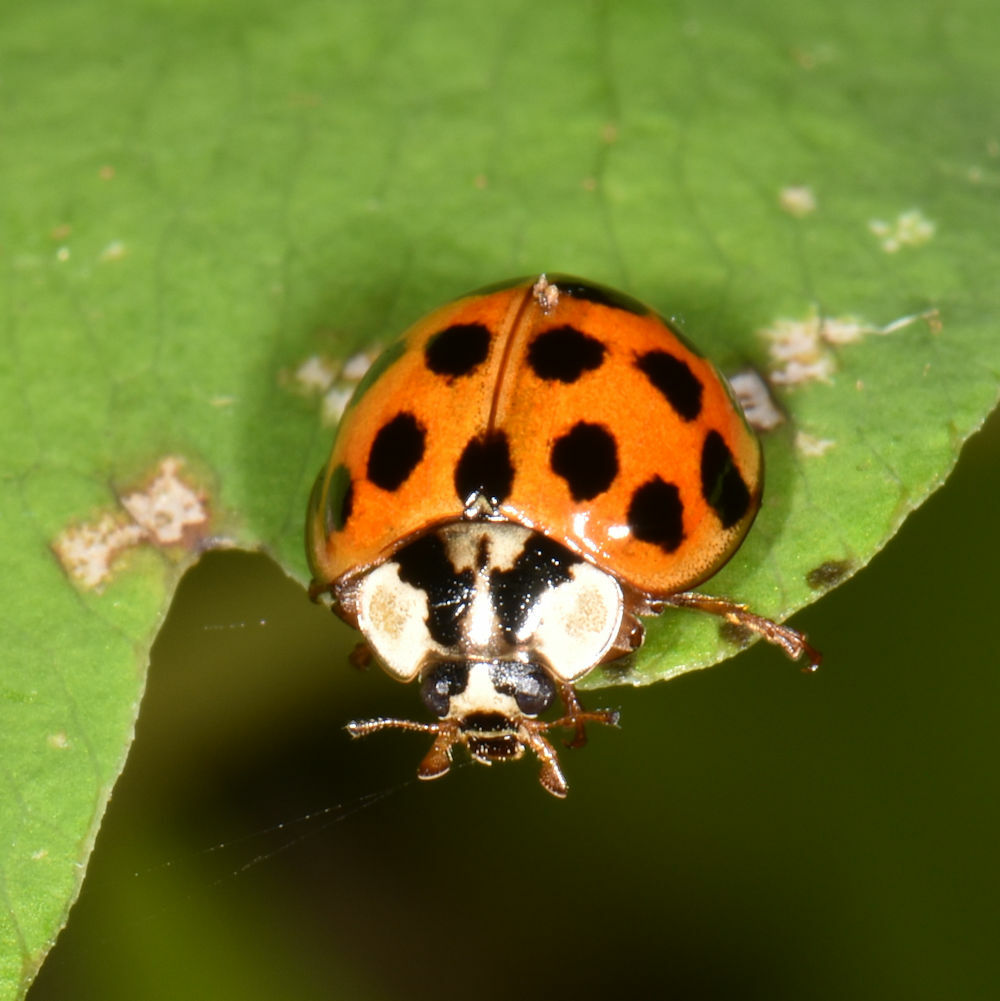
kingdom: Animalia
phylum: Arthropoda
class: Insecta
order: Coleoptera
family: Coccinellidae
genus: Harmonia
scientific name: Harmonia axyridis
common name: Harlequin ladybird
